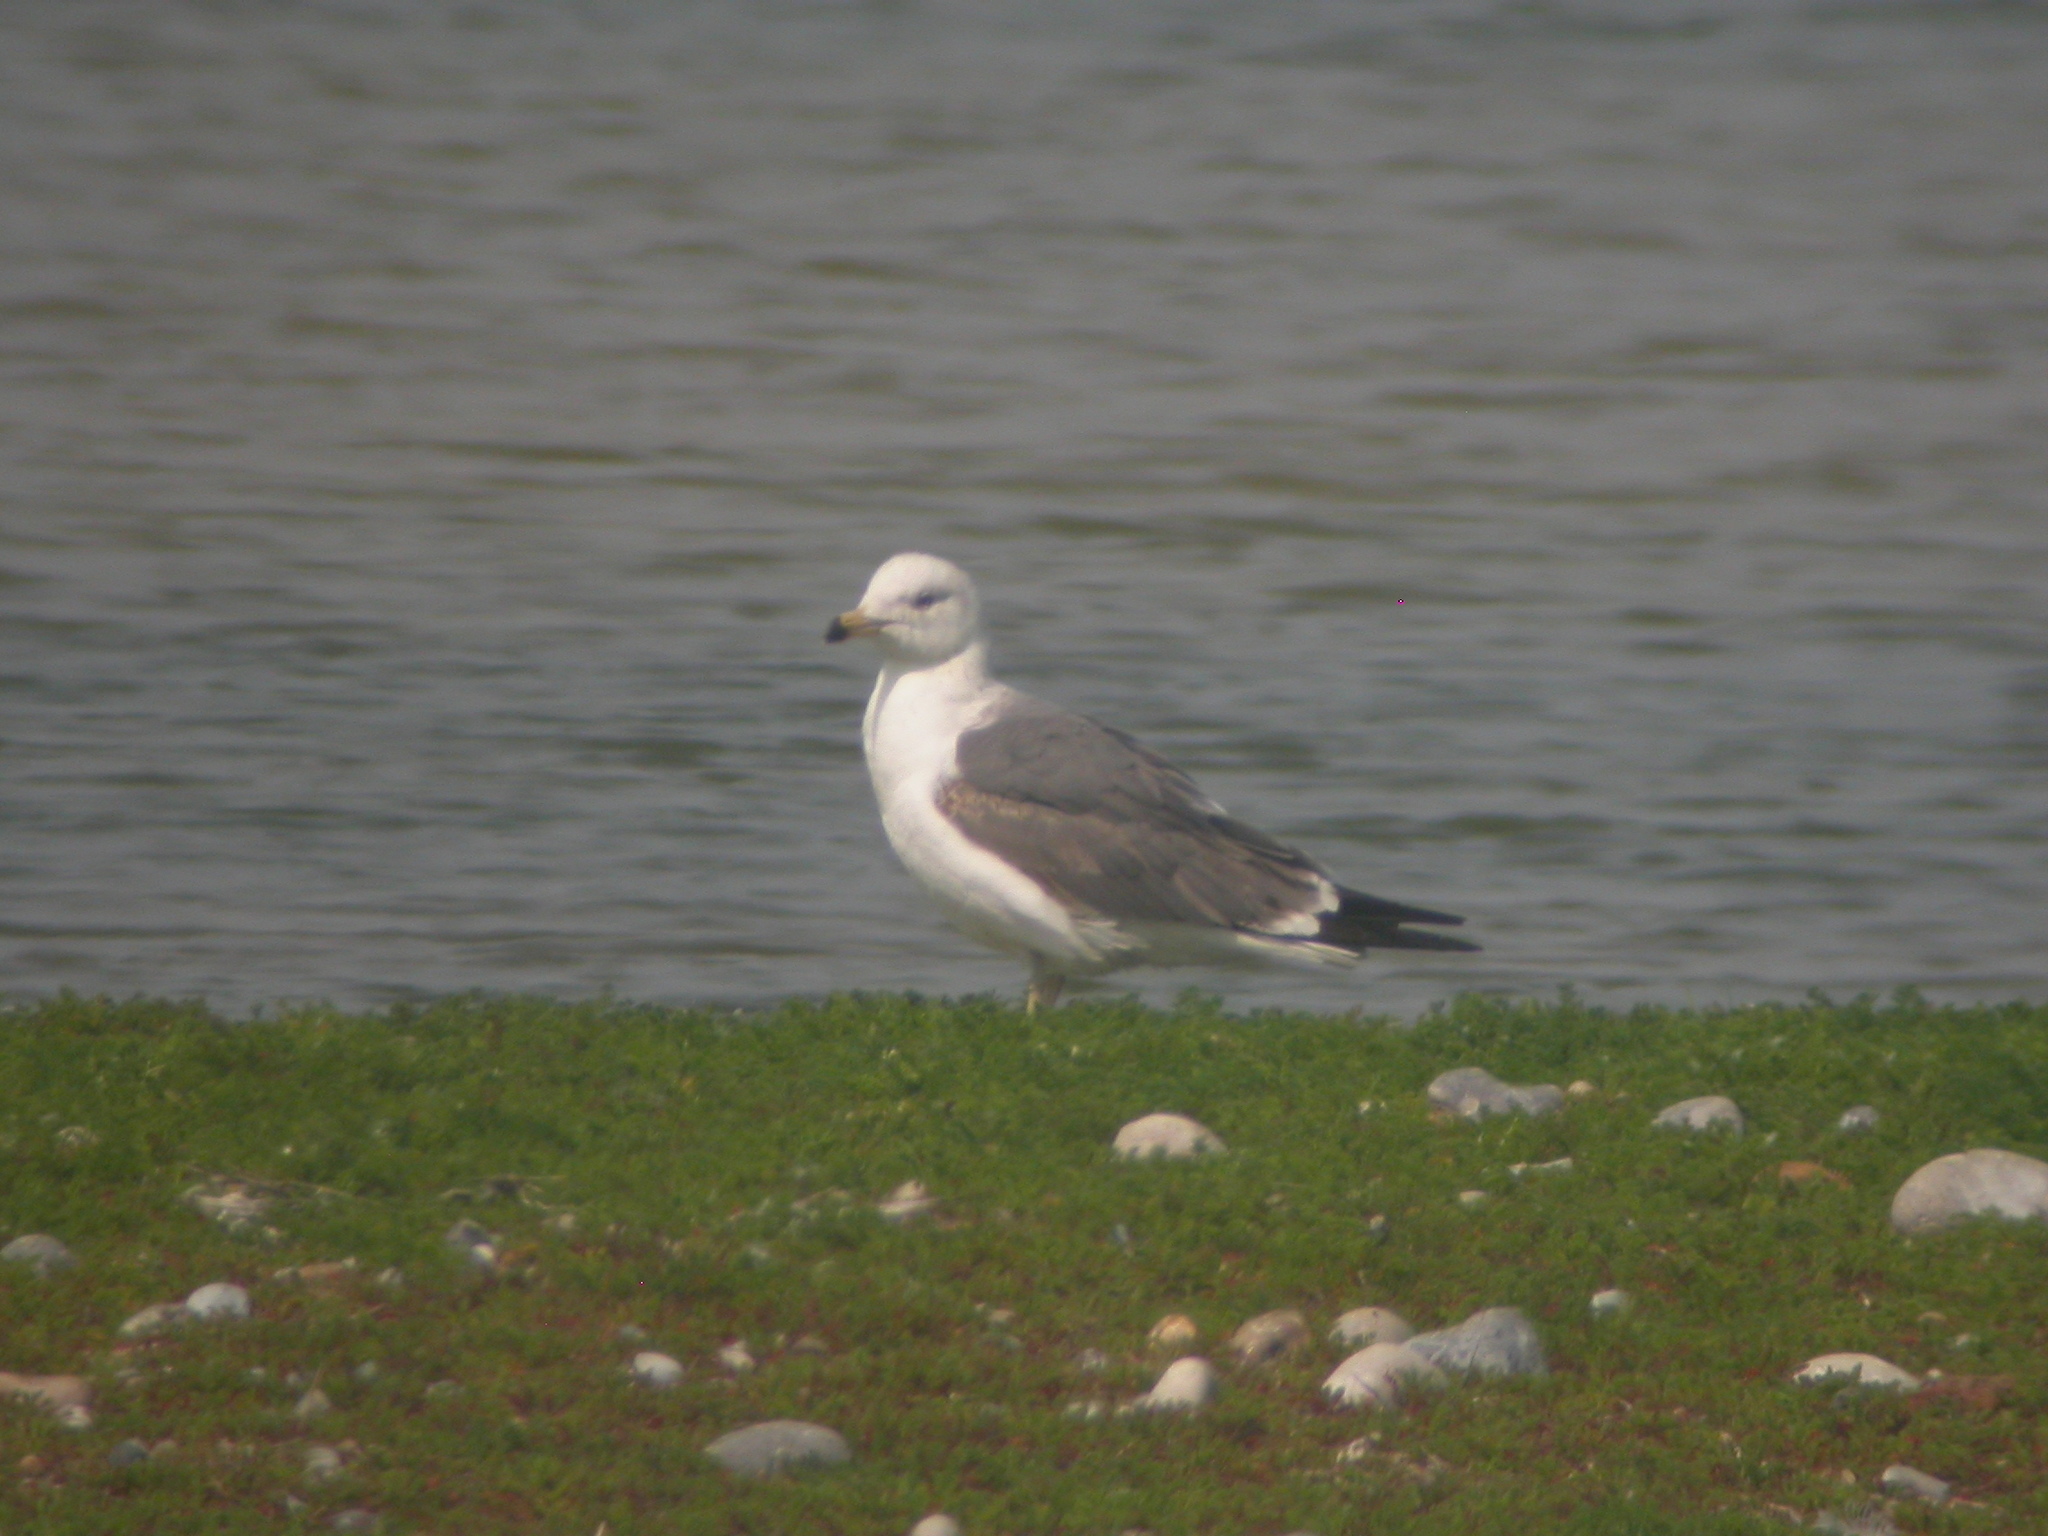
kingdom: Animalia
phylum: Chordata
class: Aves
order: Charadriiformes
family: Laridae
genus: Larus
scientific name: Larus fuscus
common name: Lesser black-backed gull
